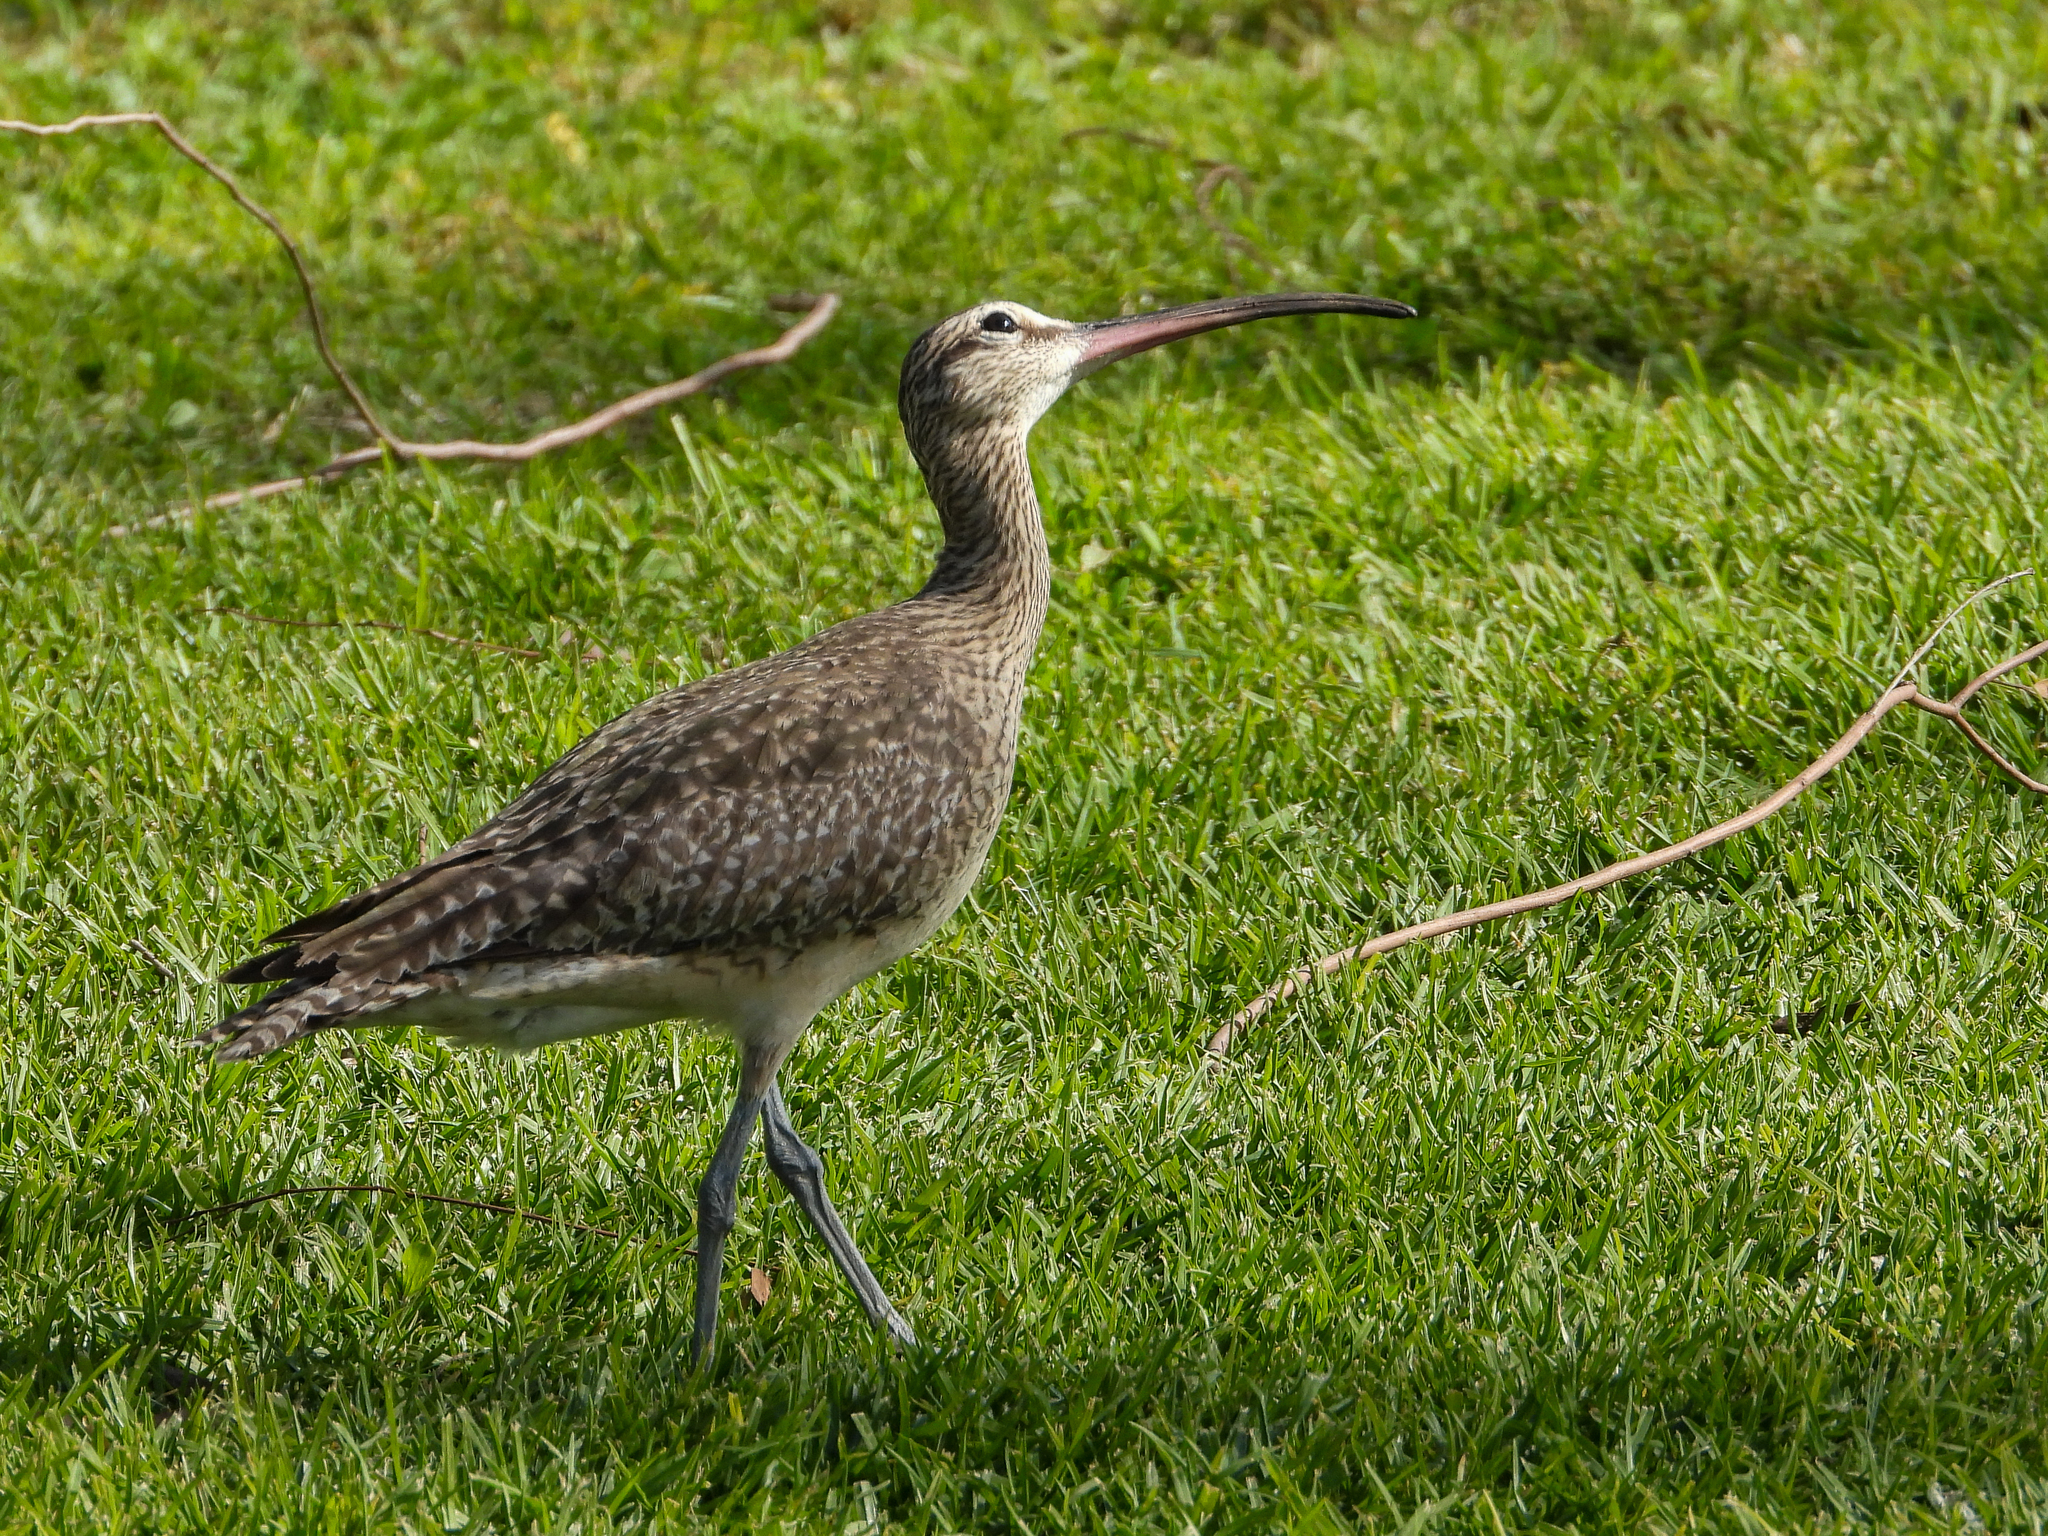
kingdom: Animalia
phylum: Chordata
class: Aves
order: Charadriiformes
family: Scolopacidae
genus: Numenius
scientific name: Numenius phaeopus
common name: Whimbrel
